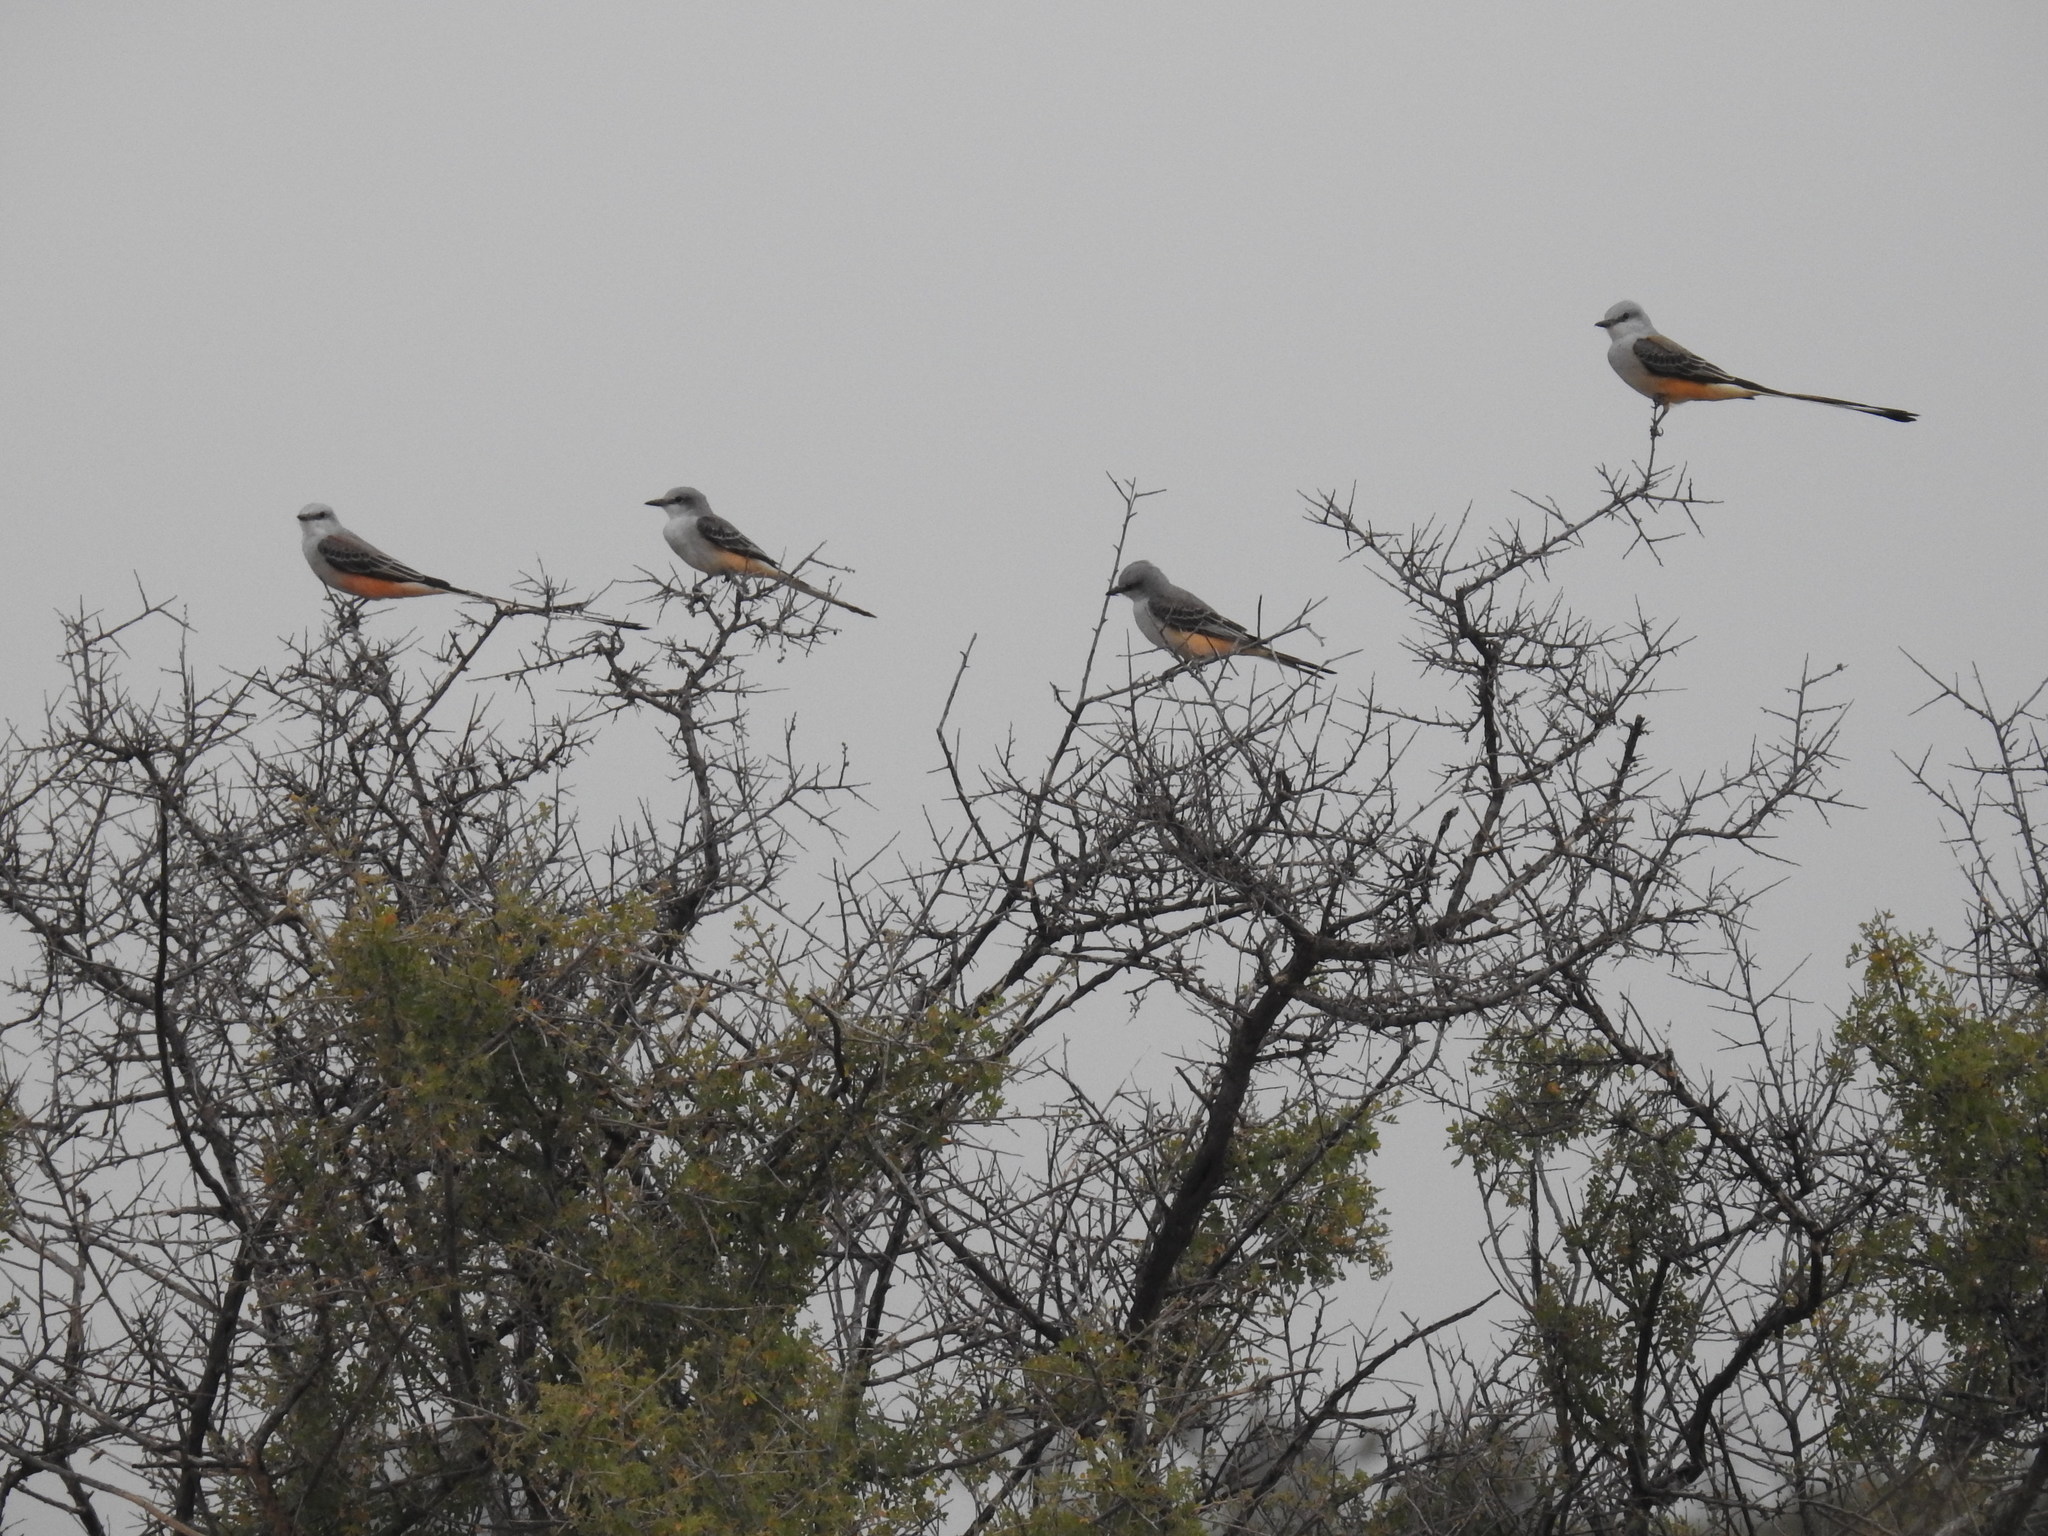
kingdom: Animalia
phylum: Chordata
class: Aves
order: Passeriformes
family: Tyrannidae
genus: Tyrannus
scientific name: Tyrannus forficatus
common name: Scissor-tailed flycatcher
